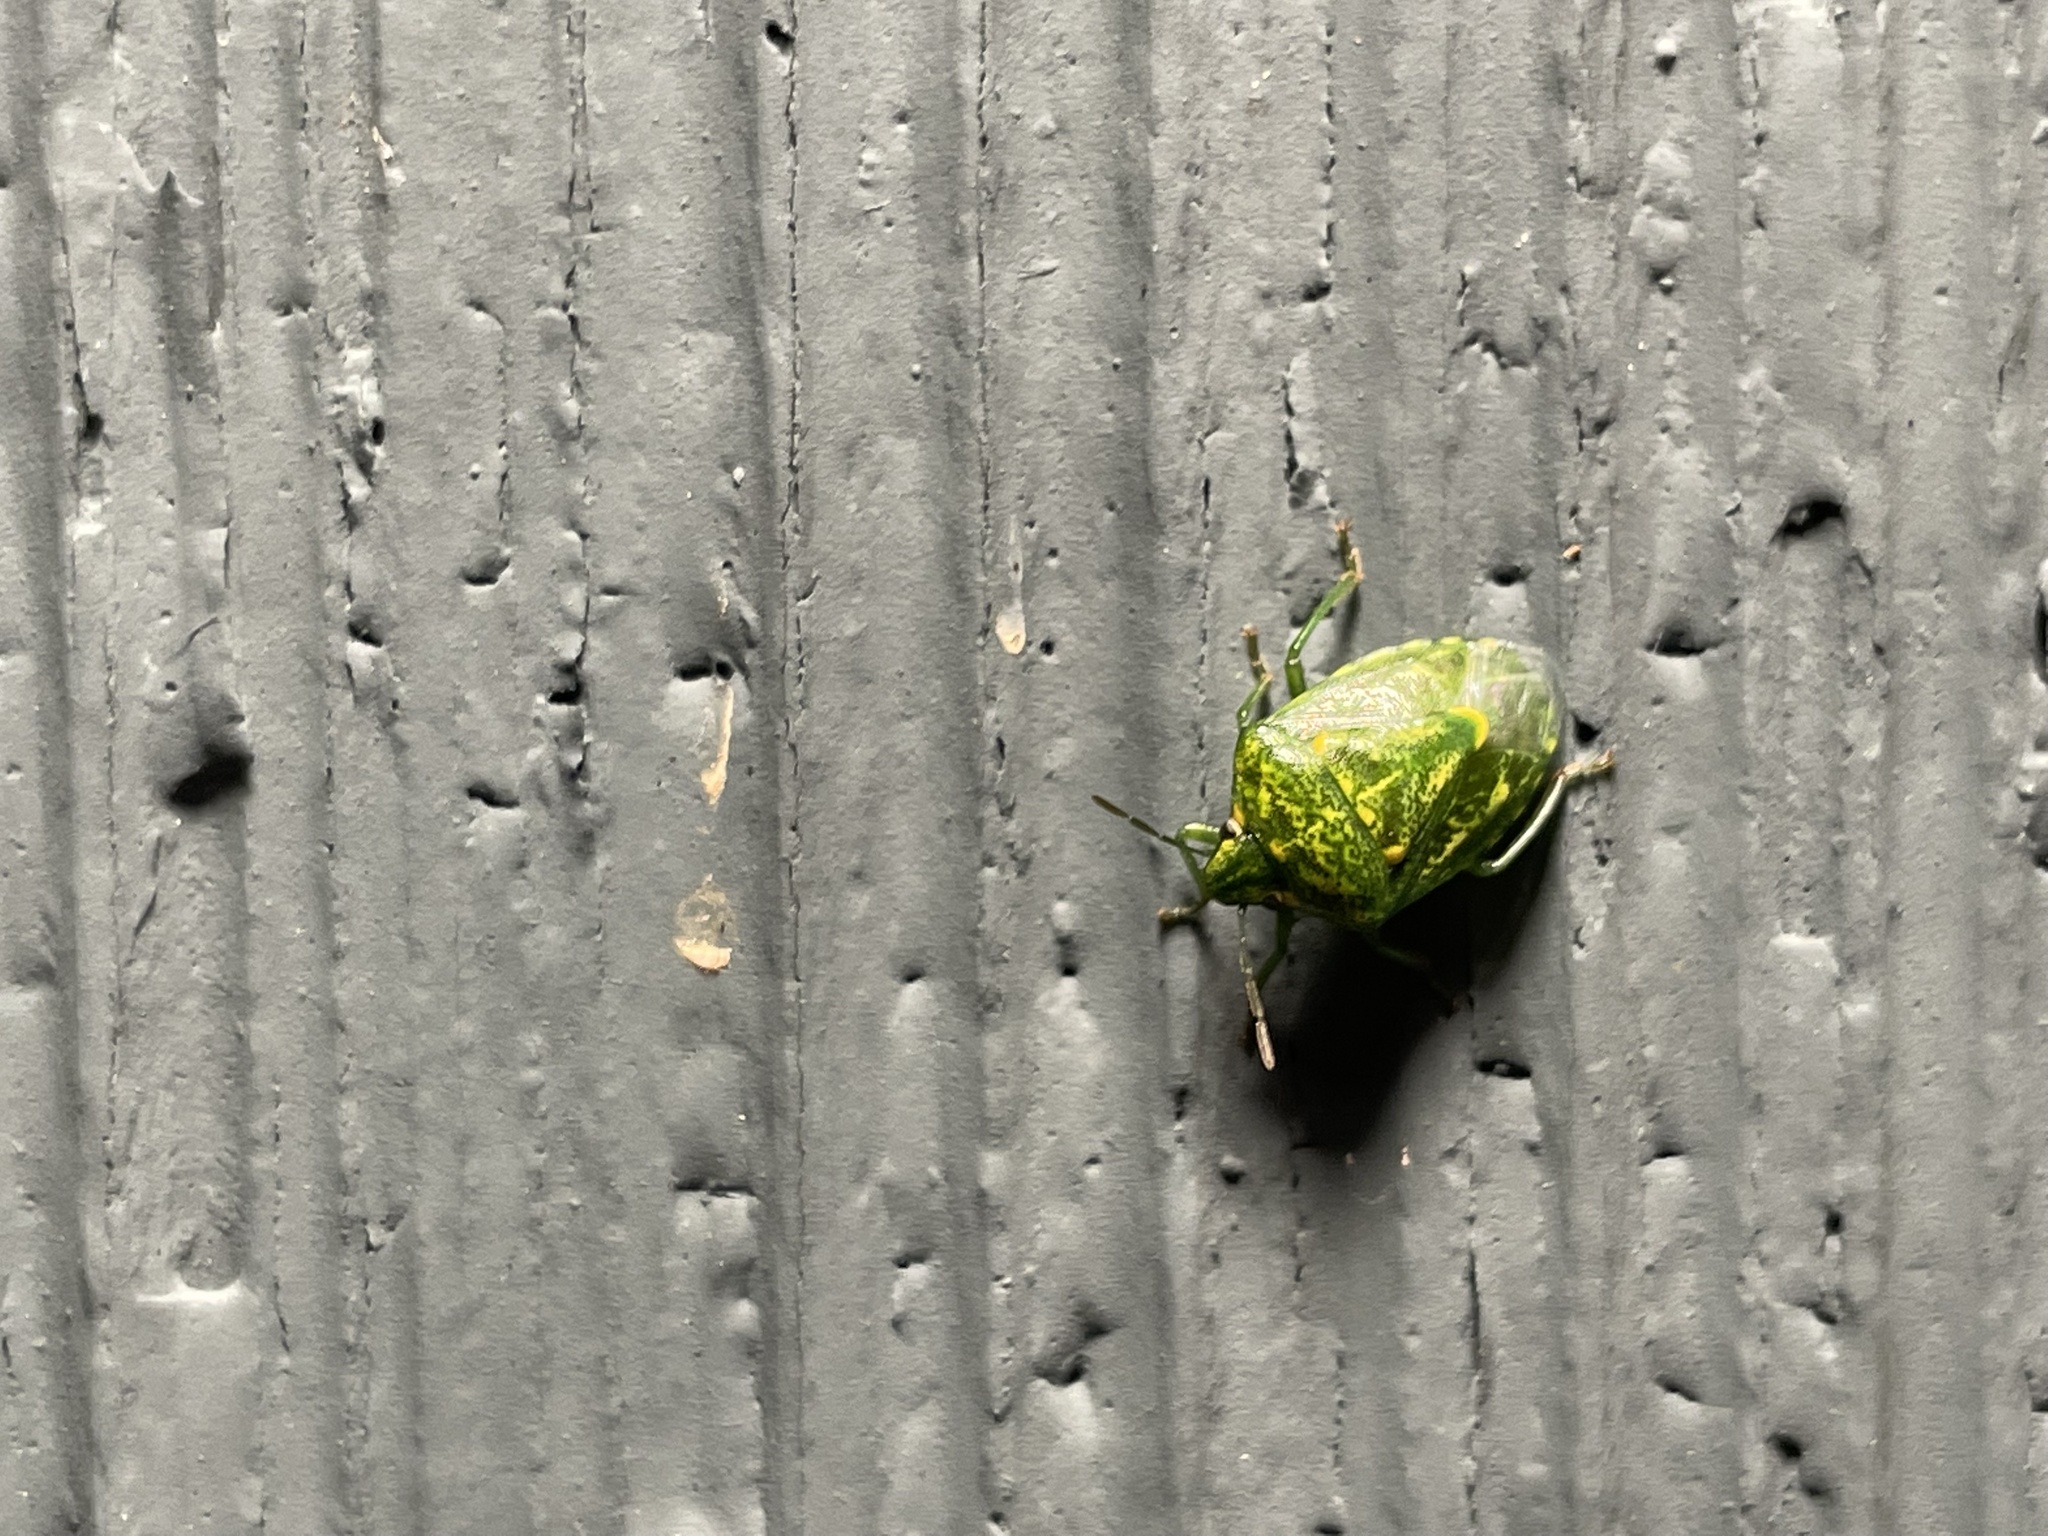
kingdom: Animalia
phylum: Arthropoda
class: Insecta
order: Hemiptera
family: Pentatomidae
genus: Banasa
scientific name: Banasa euchlora
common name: Cedar berry bug
